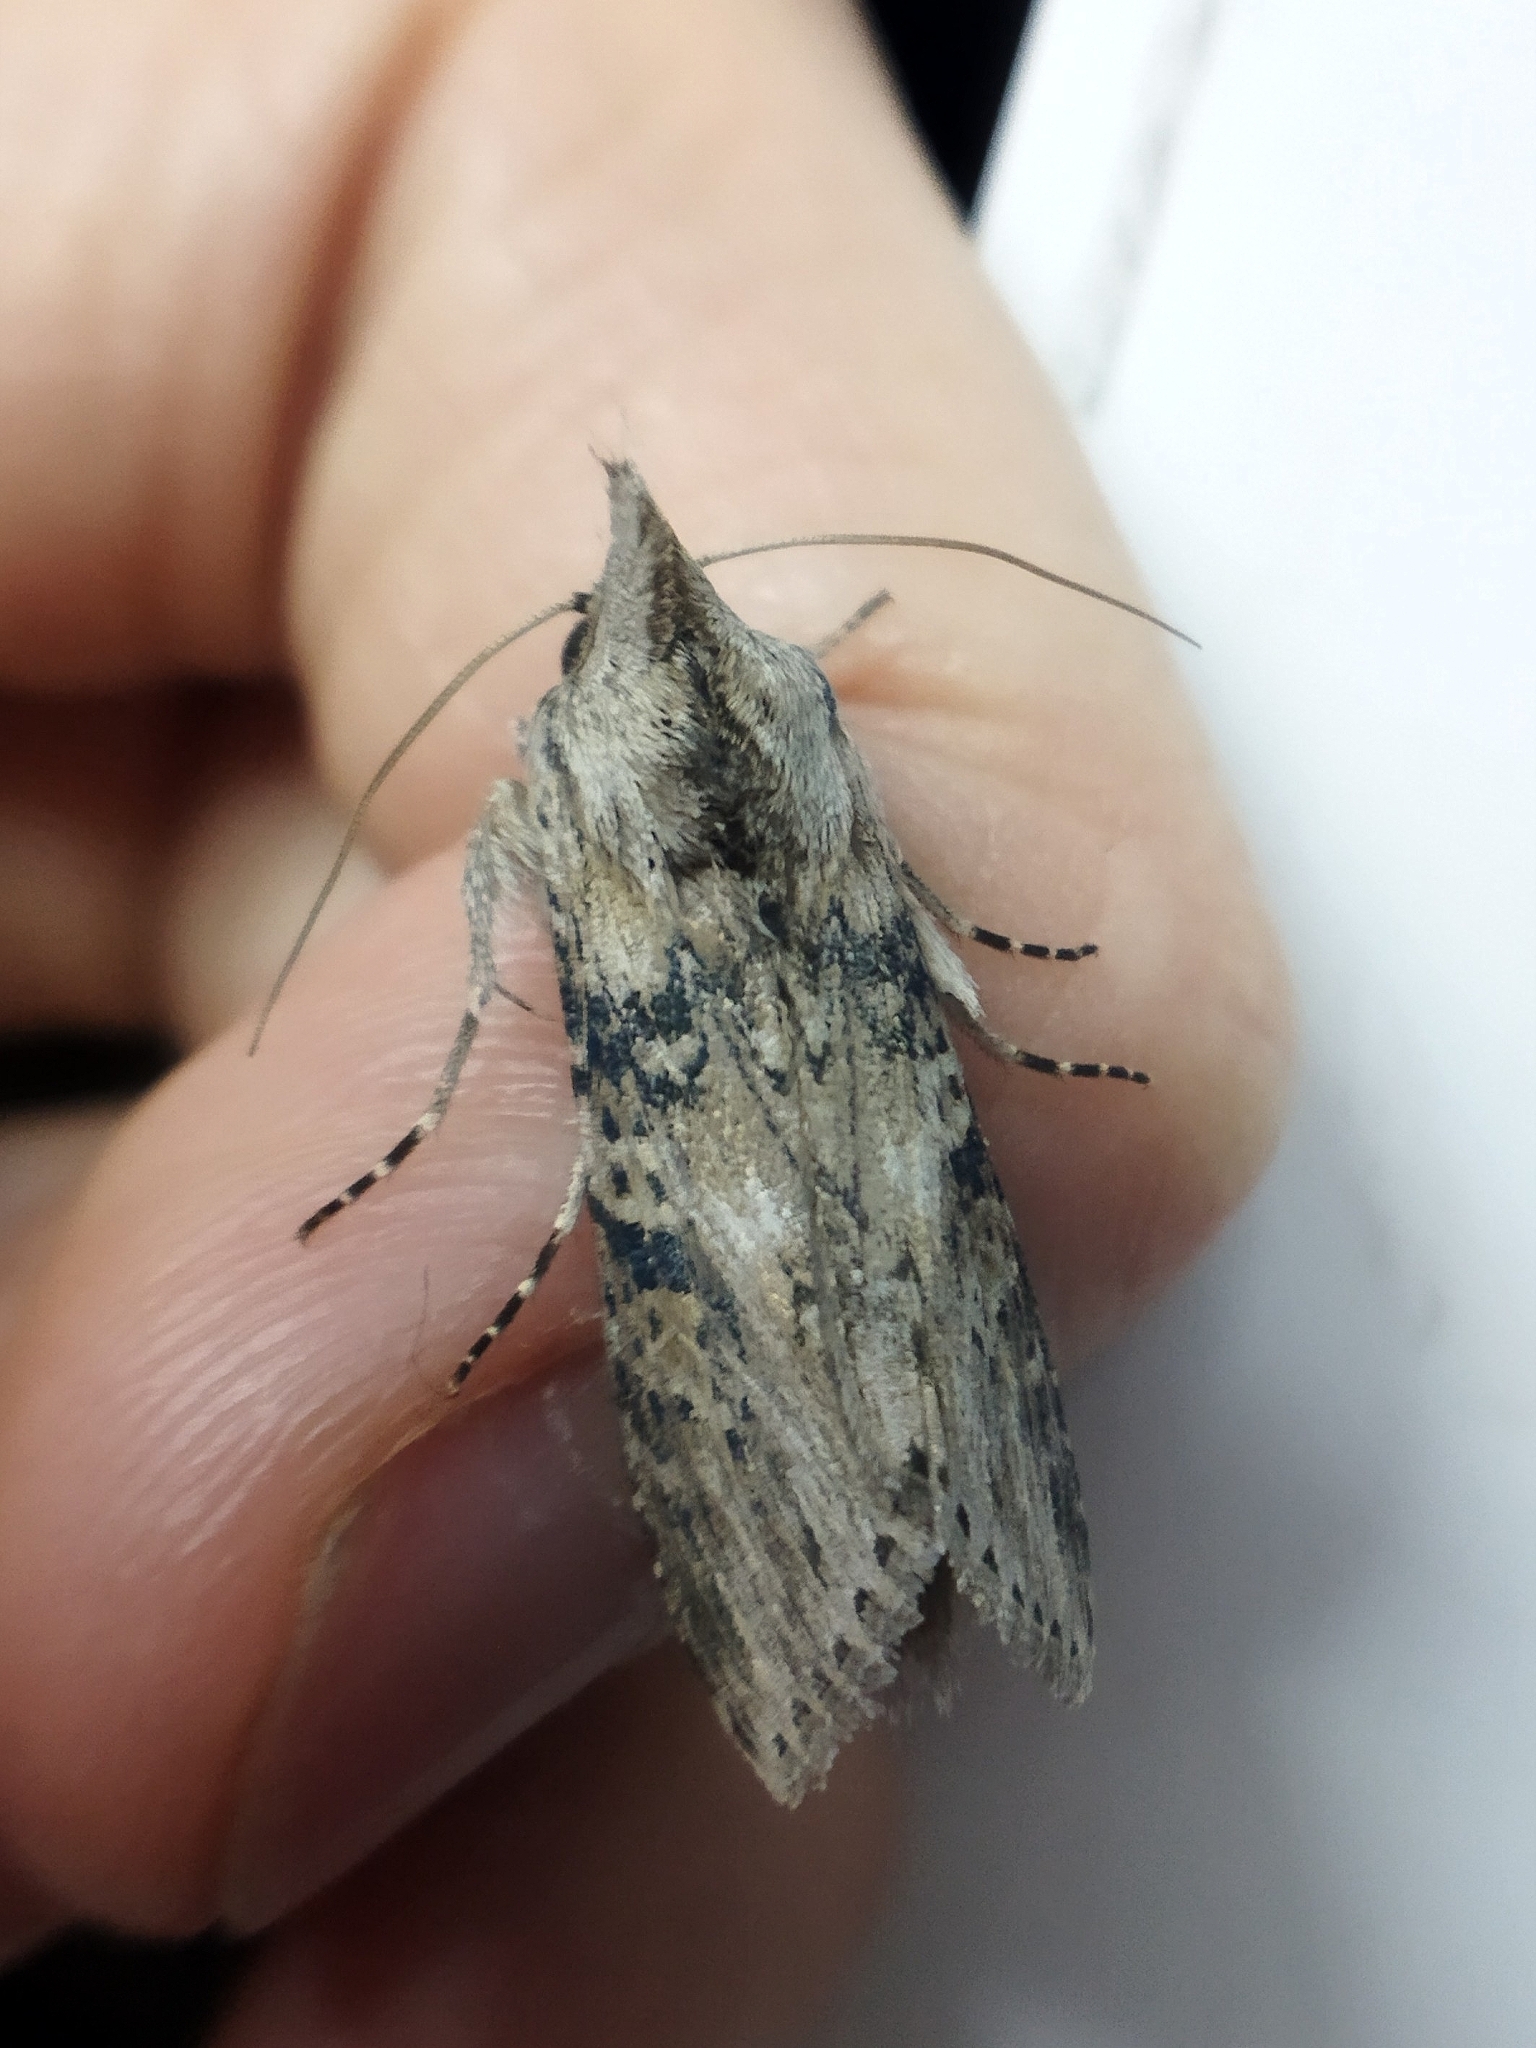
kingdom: Animalia
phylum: Arthropoda
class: Insecta
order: Lepidoptera
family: Noctuidae
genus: Cucullia
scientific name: Cucullia absinthii
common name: Wormwood
